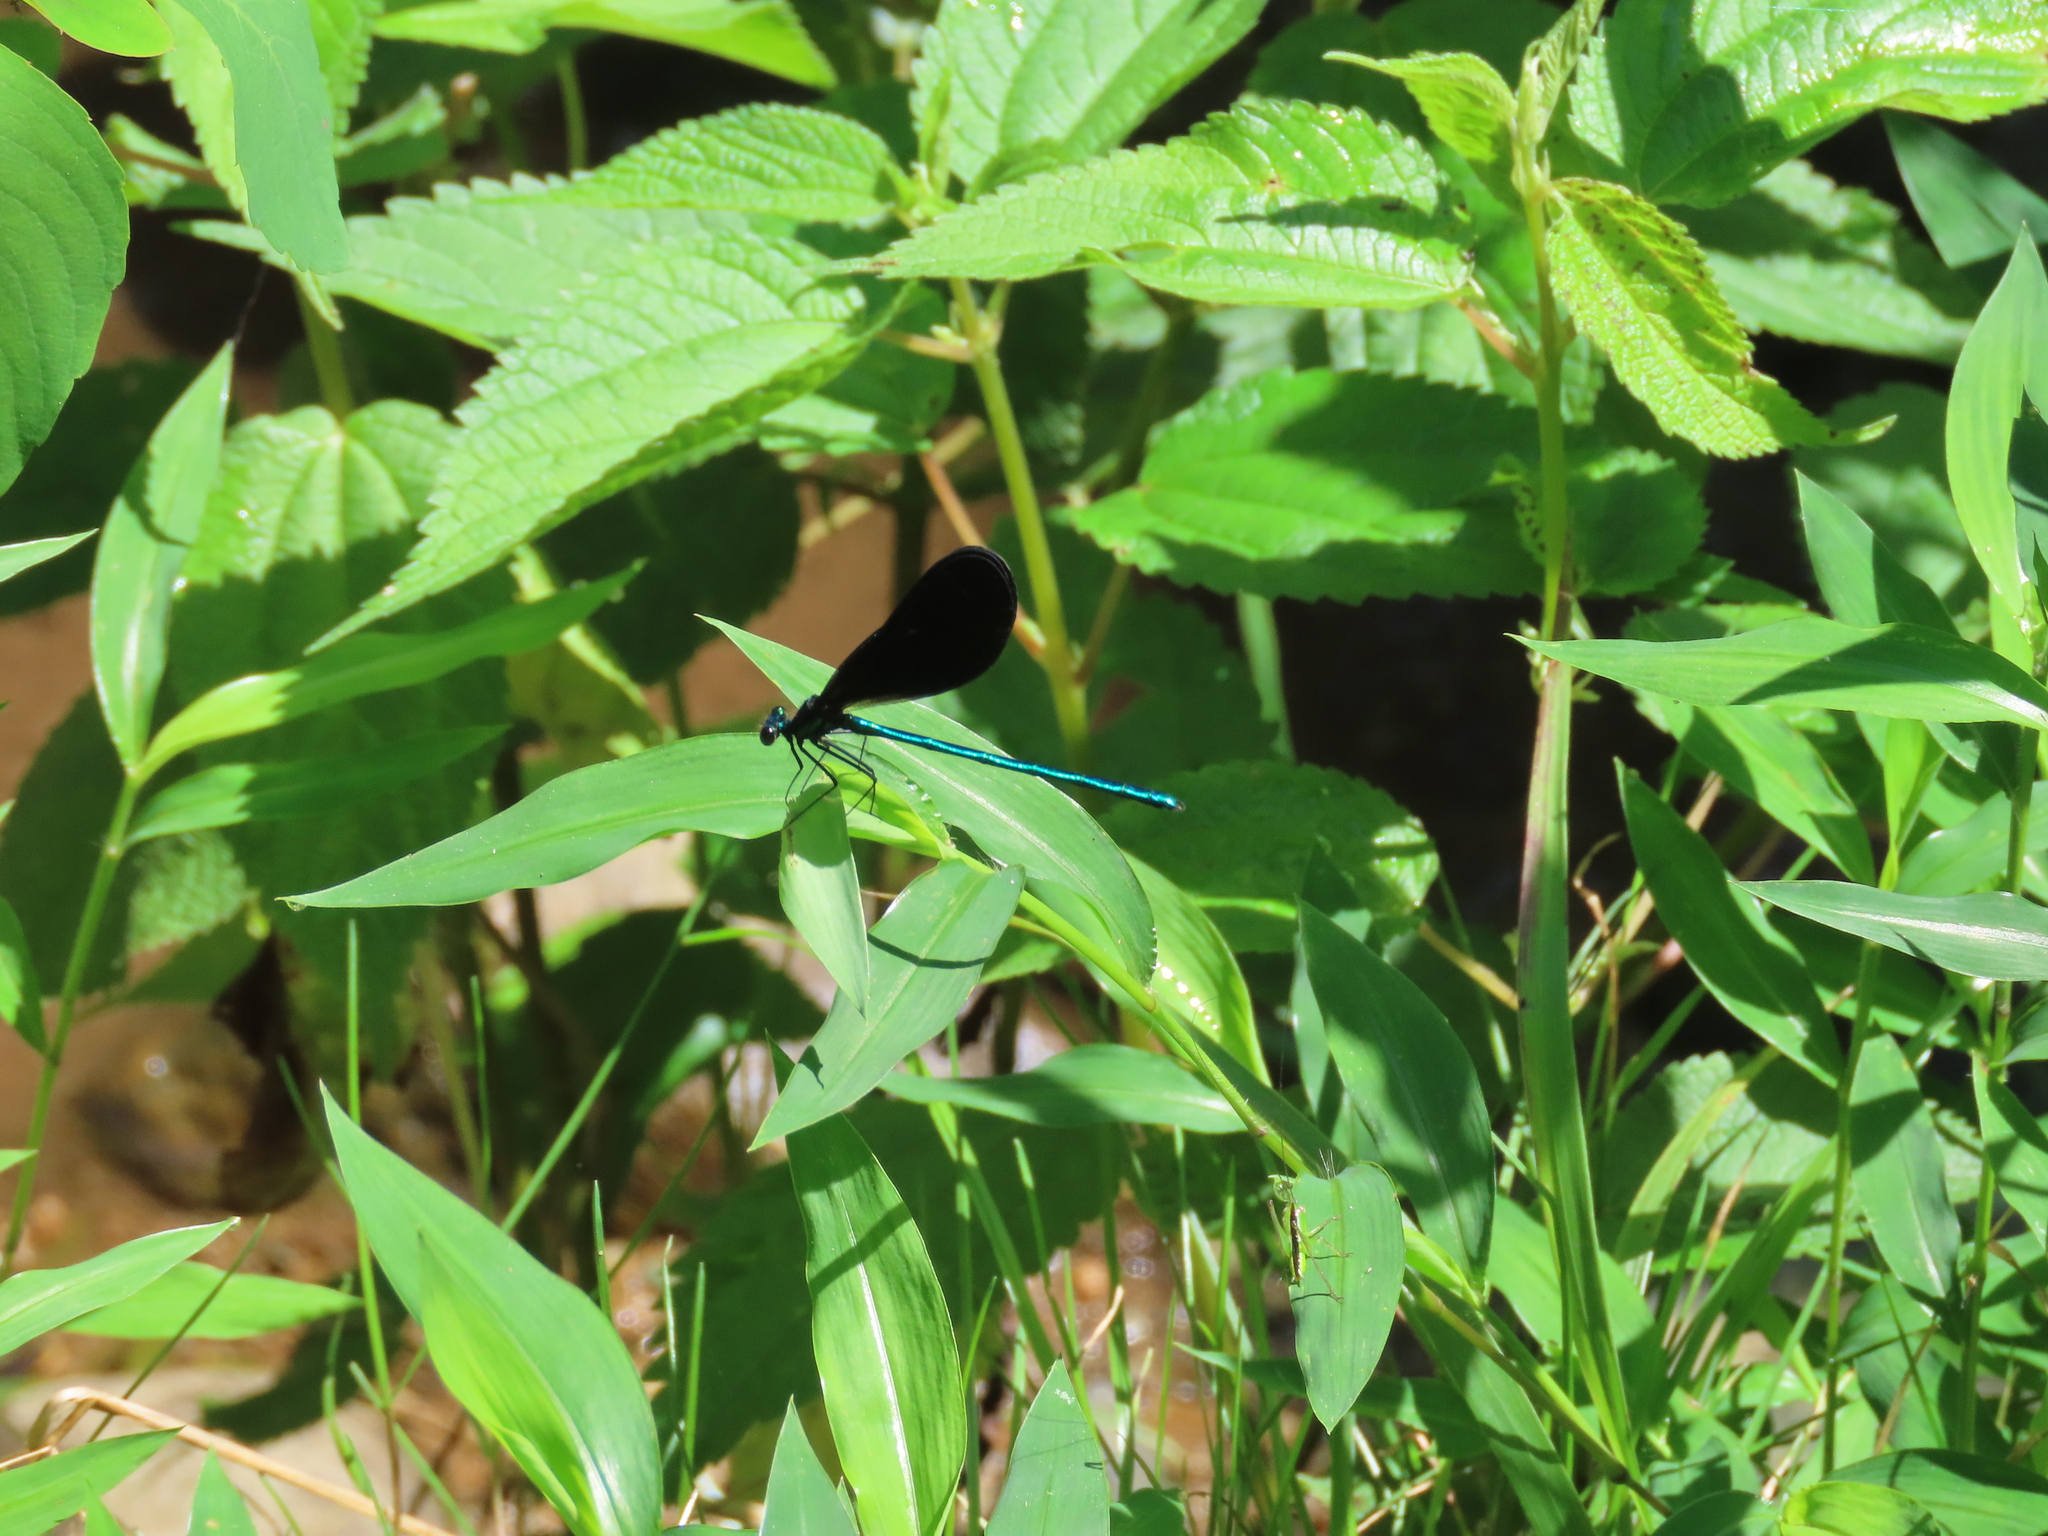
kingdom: Animalia
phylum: Arthropoda
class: Insecta
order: Odonata
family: Calopterygidae
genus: Calopteryx
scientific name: Calopteryx maculata
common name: Ebony jewelwing
